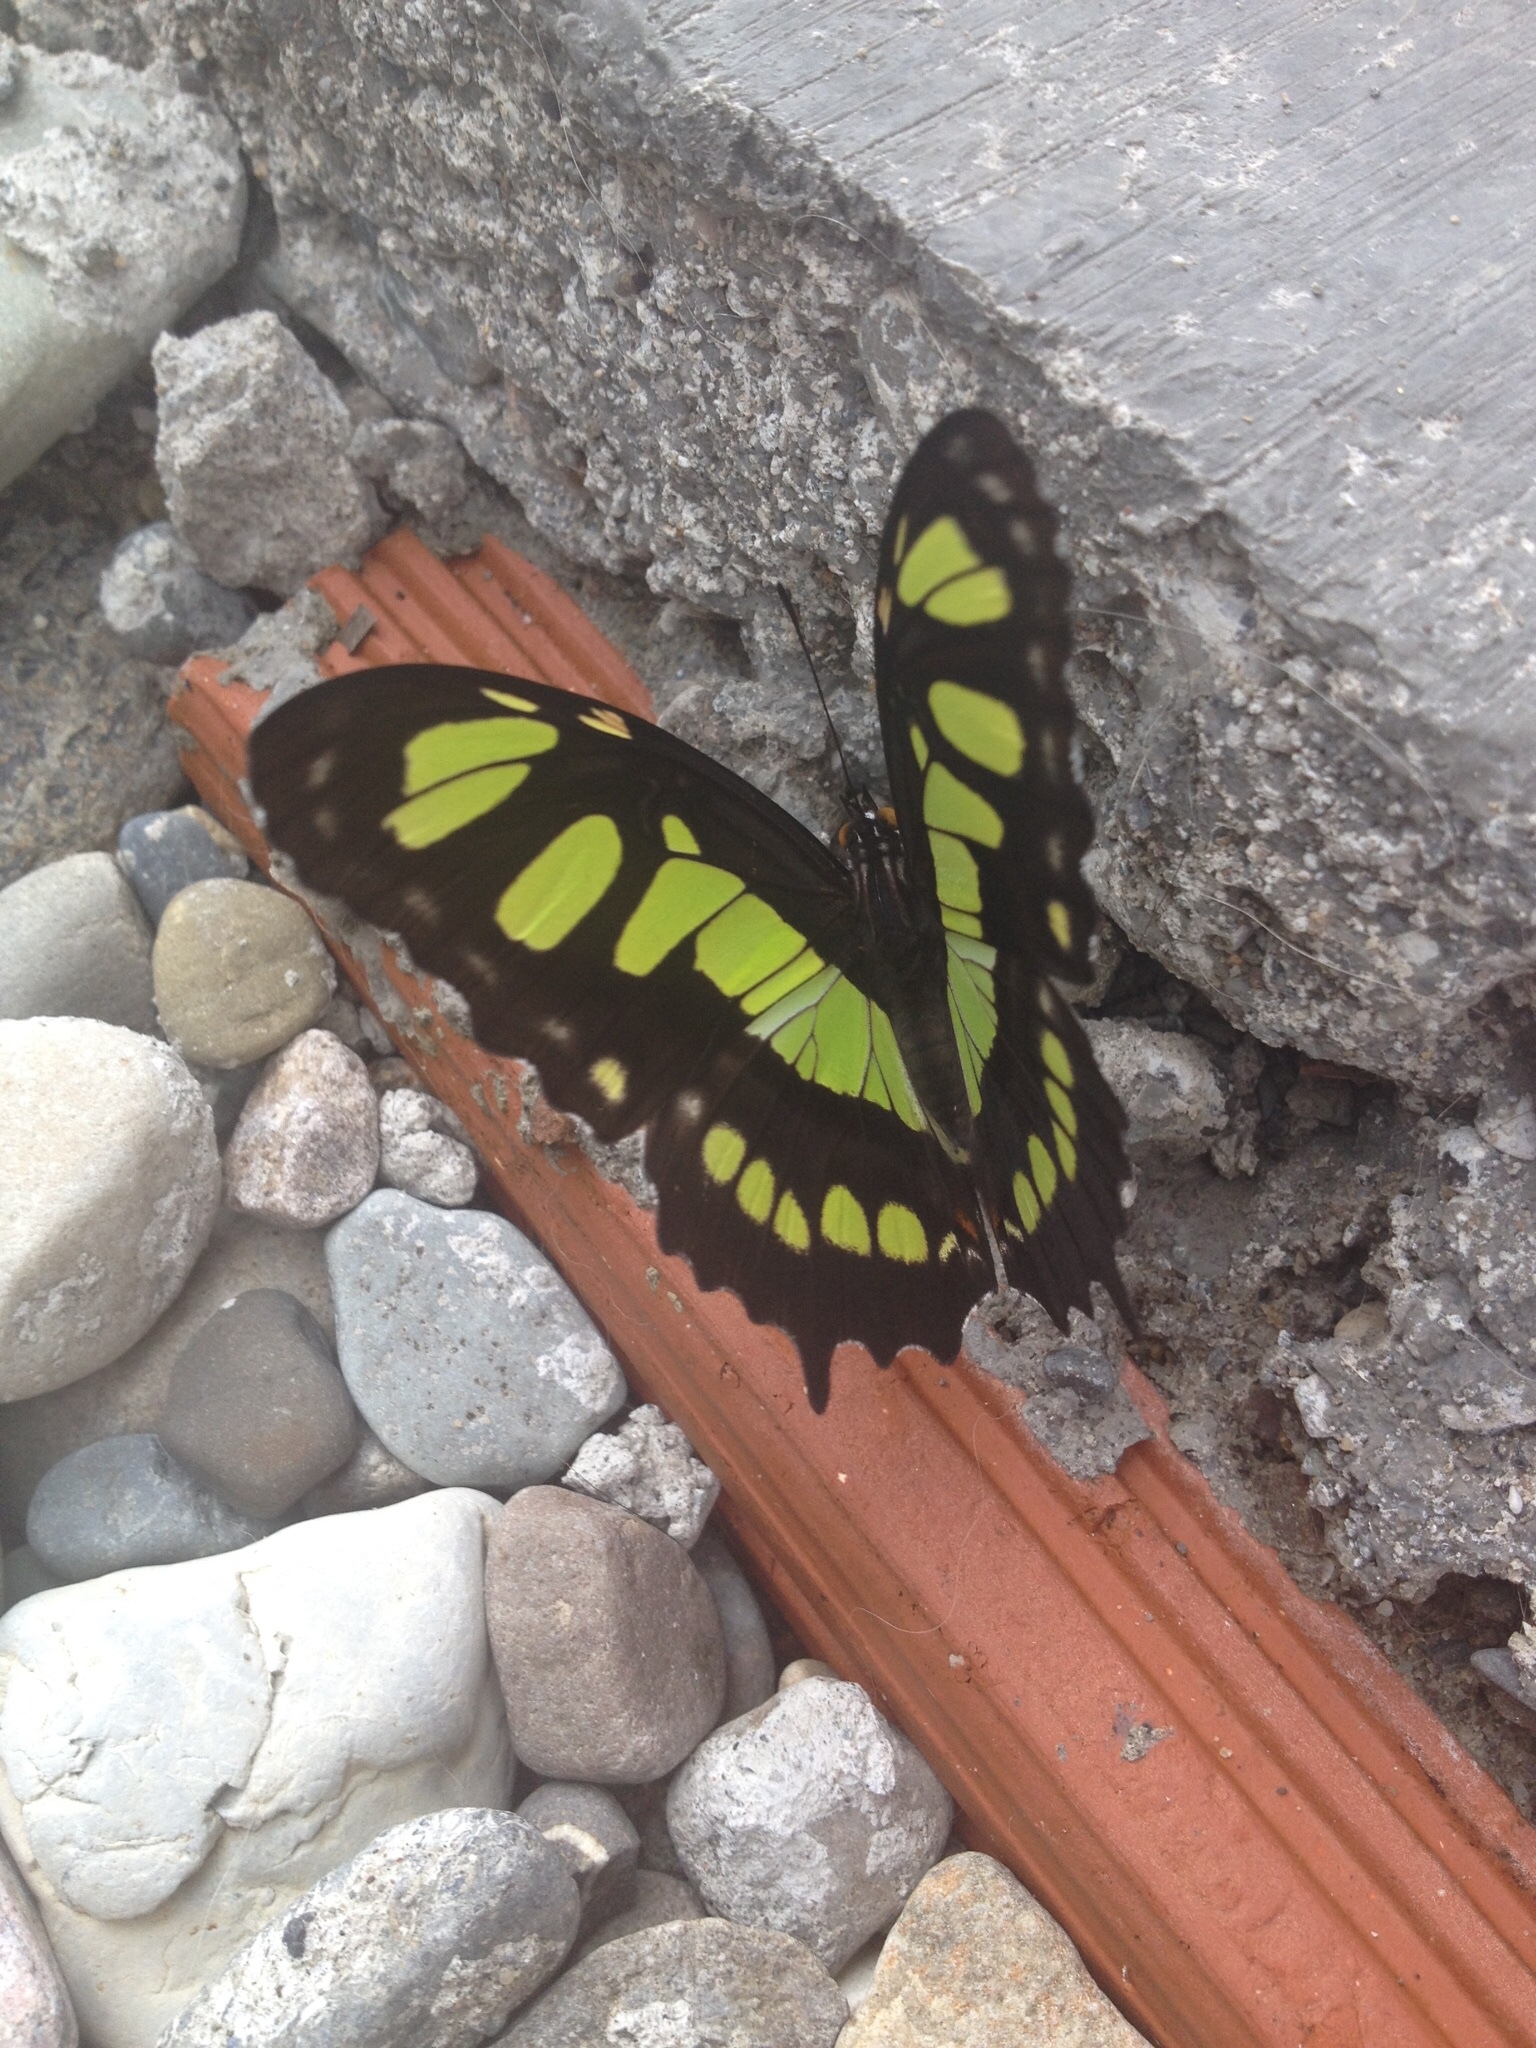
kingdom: Animalia
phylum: Arthropoda
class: Insecta
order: Lepidoptera
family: Nymphalidae
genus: Siproeta
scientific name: Siproeta stelenes
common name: Malachite
